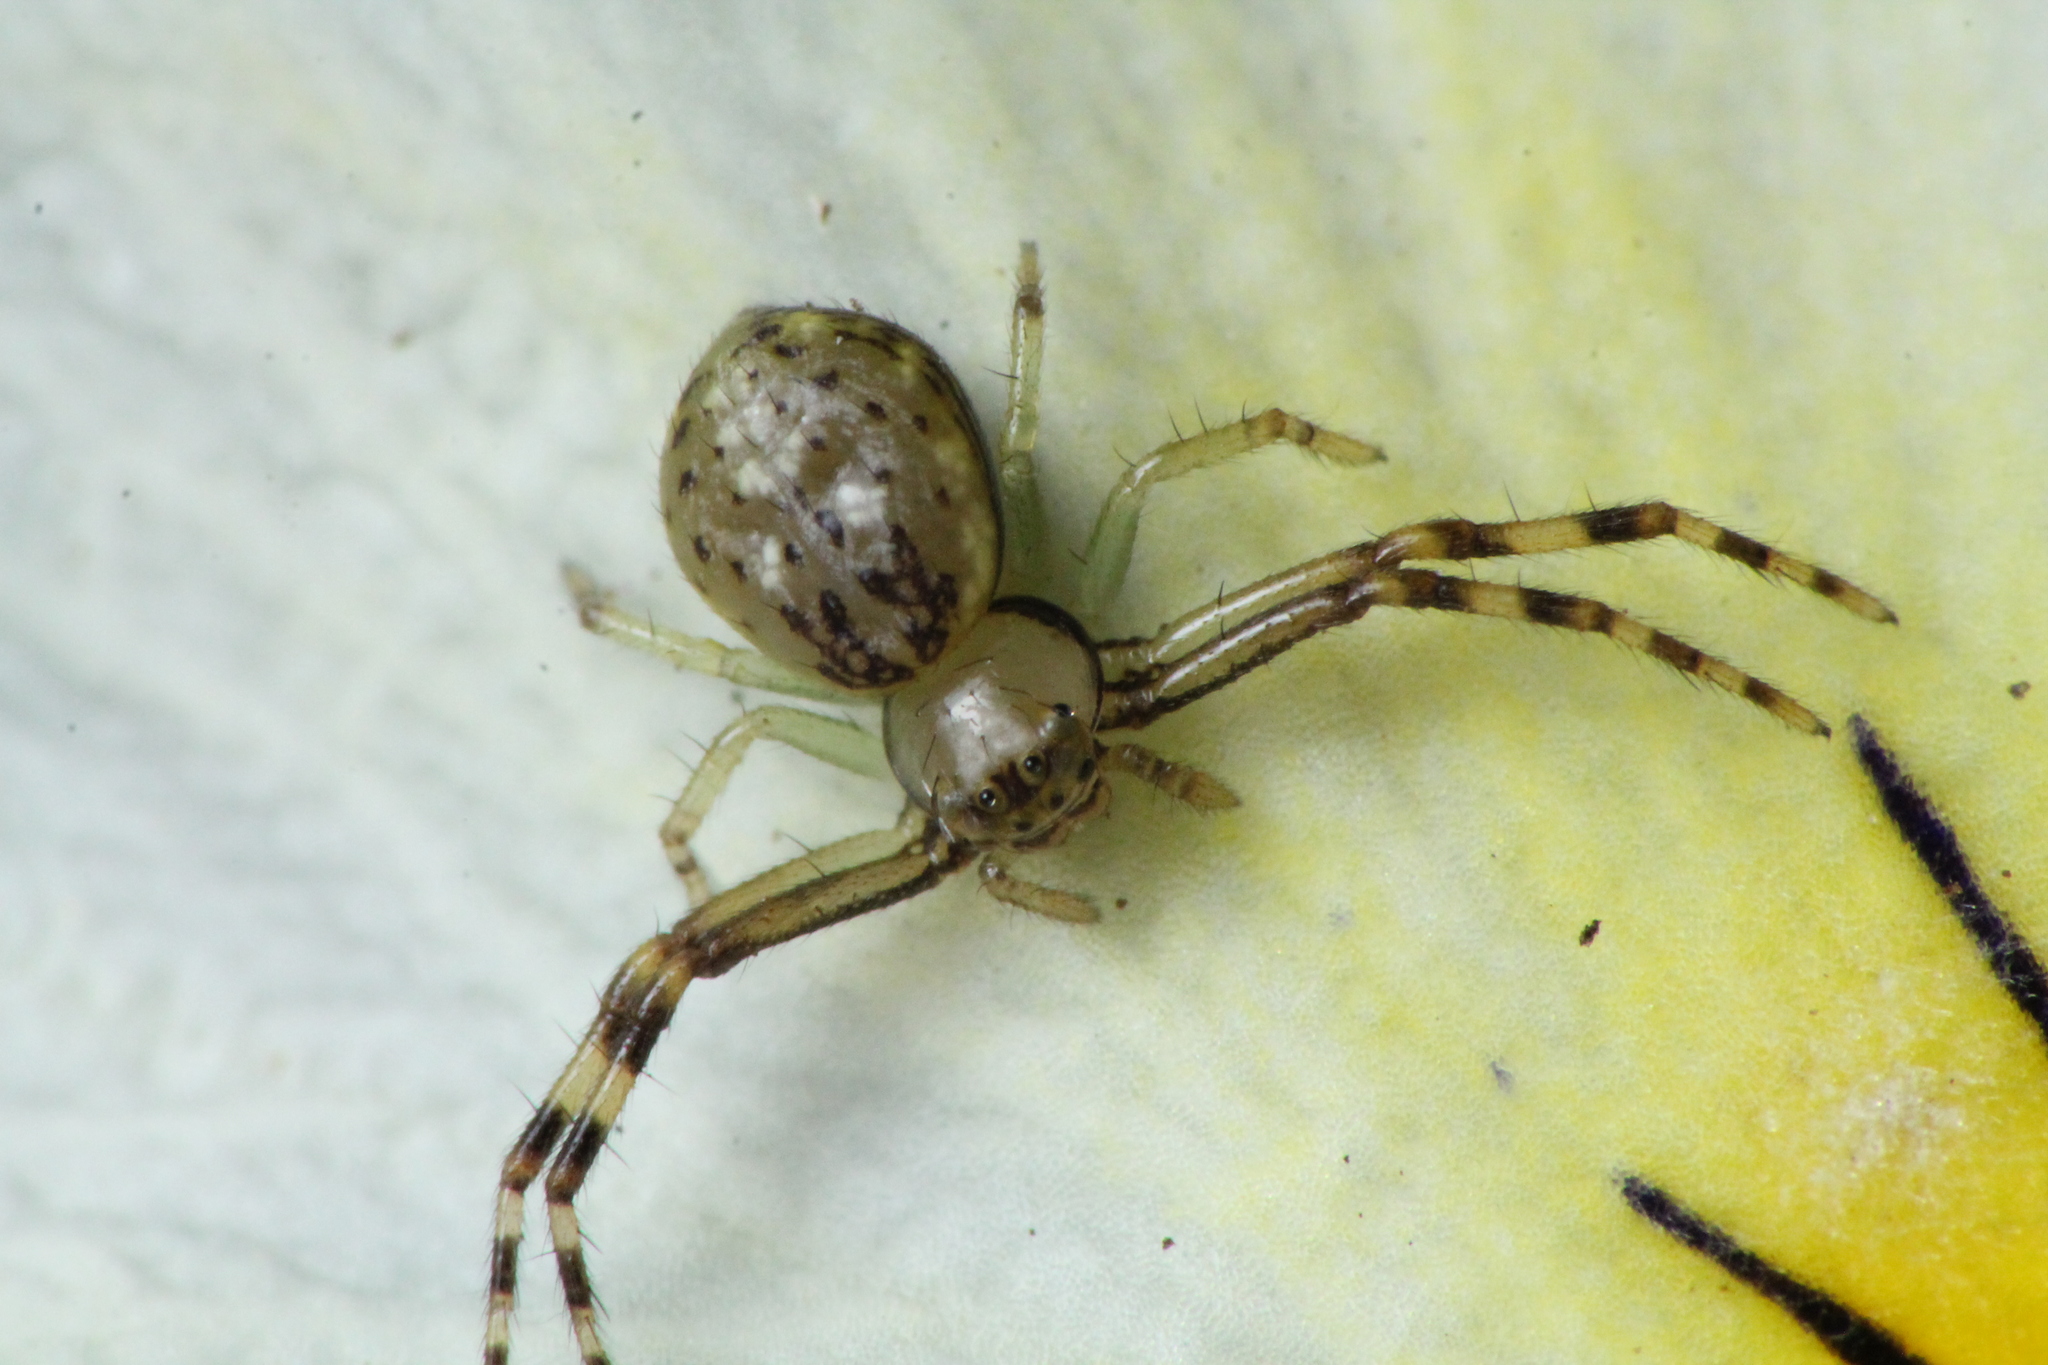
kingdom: Animalia
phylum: Arthropoda
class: Arachnida
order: Araneae
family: Thomisidae
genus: Diaea
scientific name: Diaea ambara
